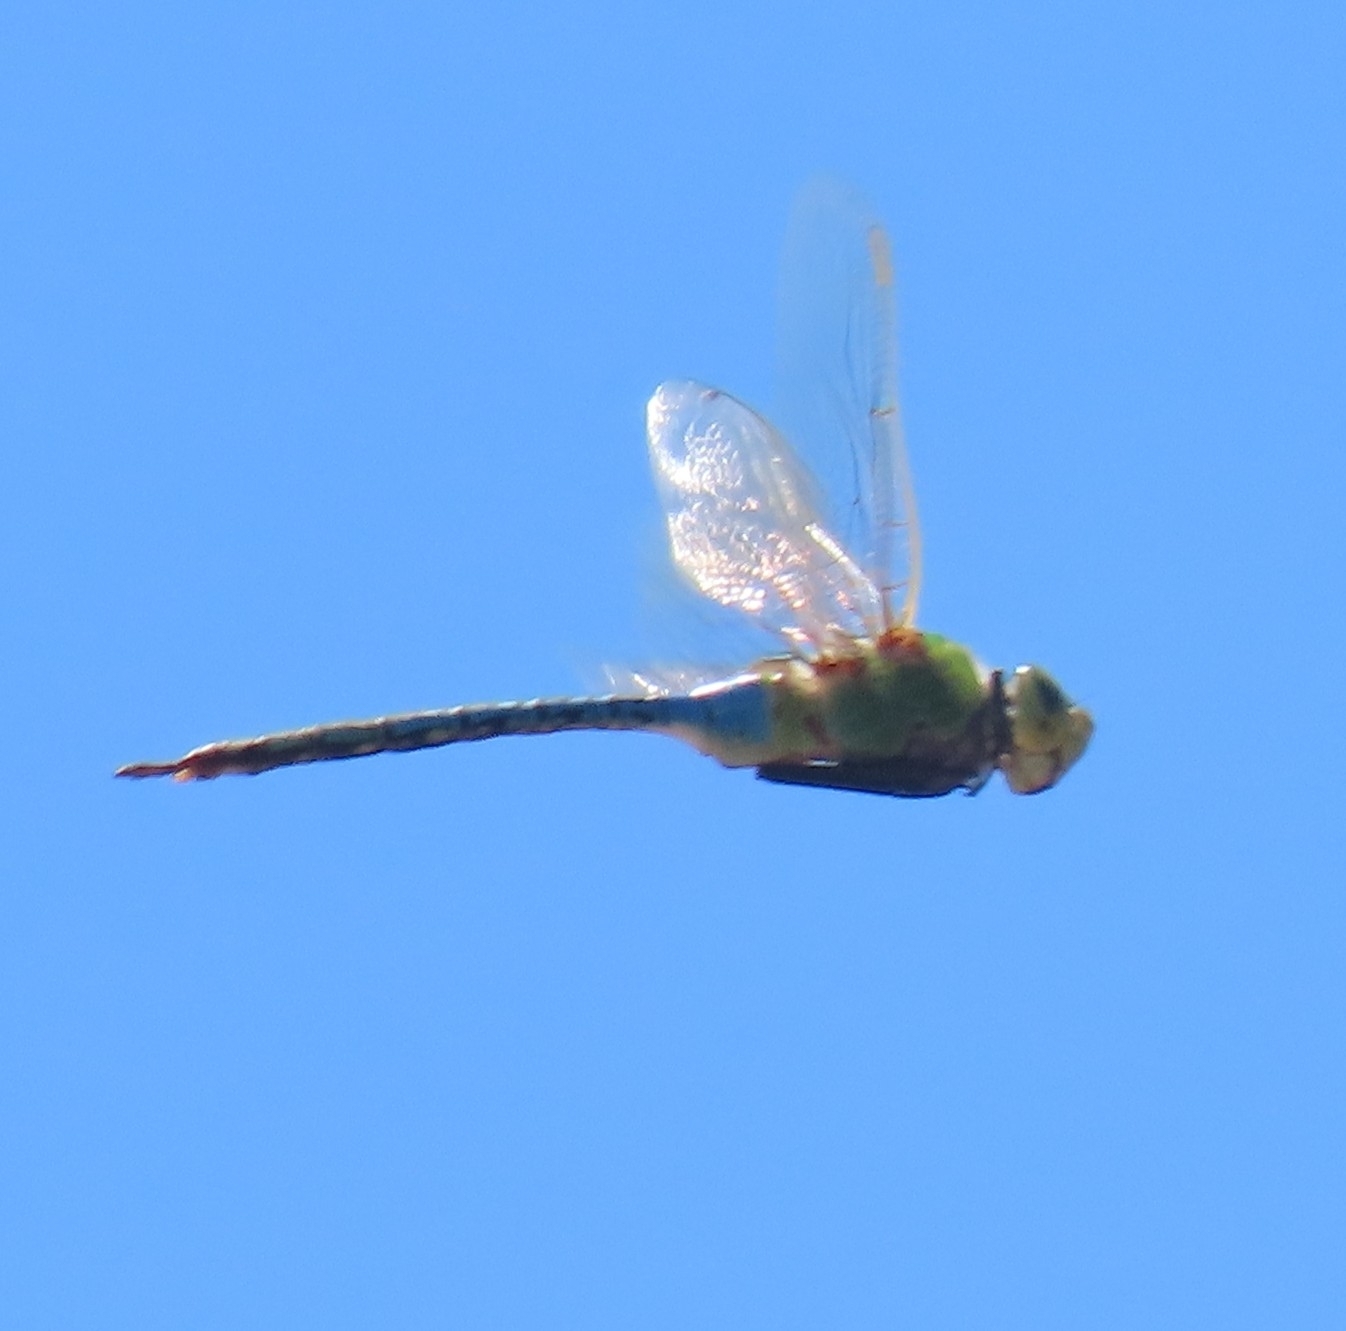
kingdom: Animalia
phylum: Arthropoda
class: Insecta
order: Odonata
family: Aeshnidae
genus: Anax
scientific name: Anax junius
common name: Common green darner
